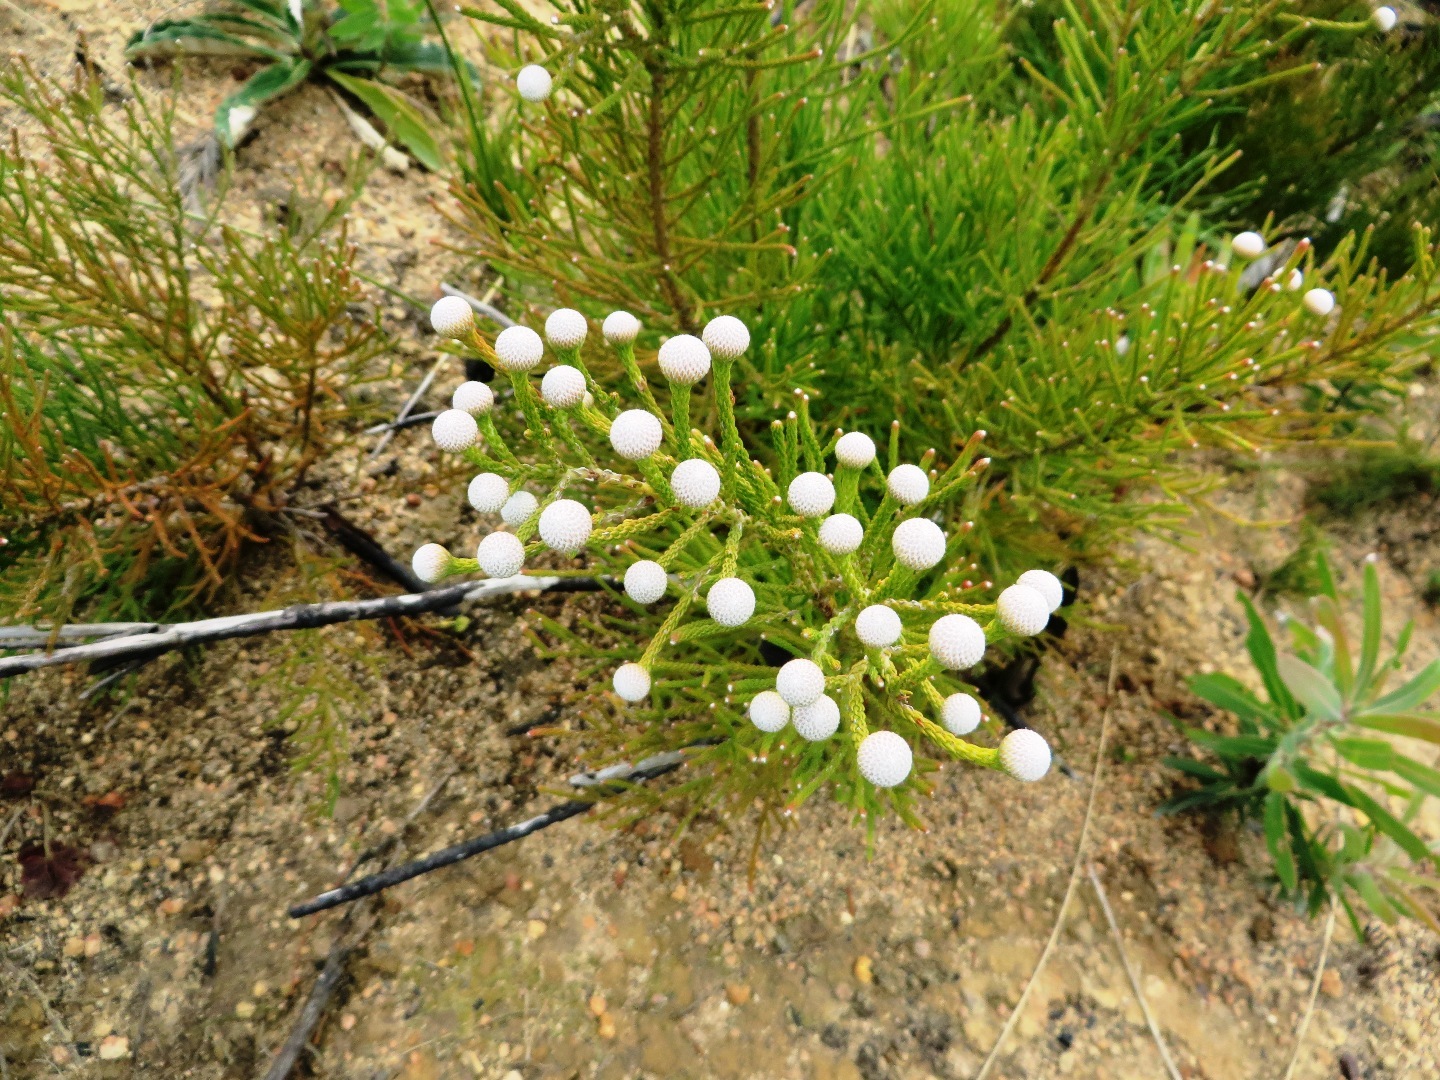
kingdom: Plantae
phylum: Tracheophyta
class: Magnoliopsida
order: Bruniales
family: Bruniaceae
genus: Brunia
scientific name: Brunia noduliflora
